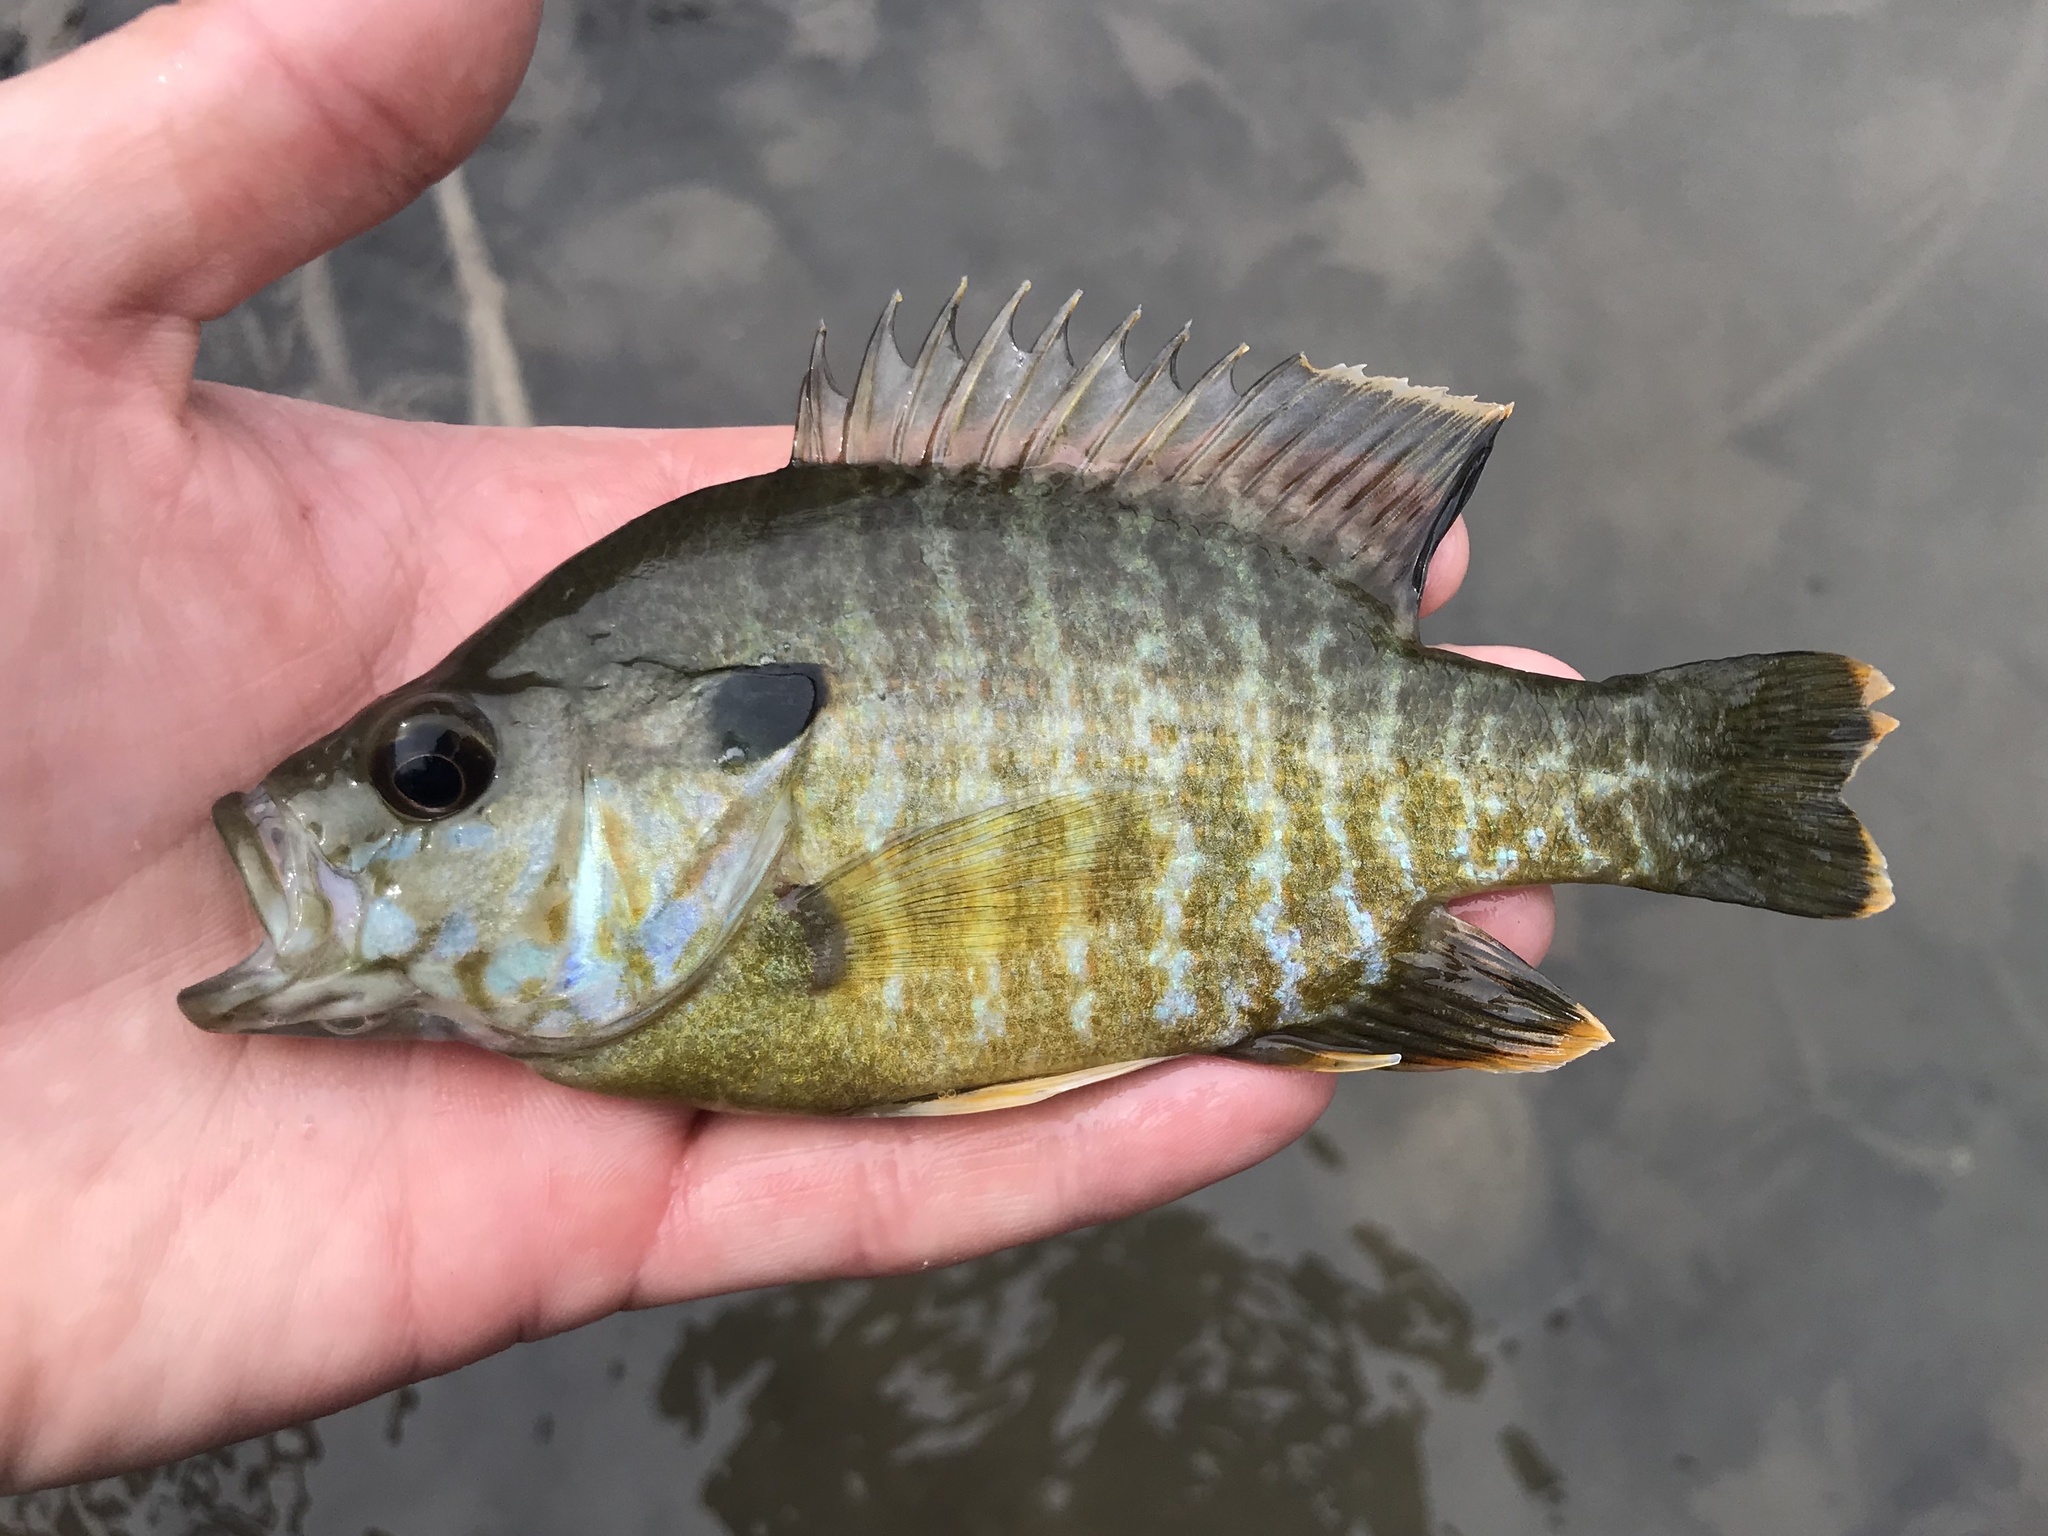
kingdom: Animalia
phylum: Chordata
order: Perciformes
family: Centrarchidae
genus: Lepomis
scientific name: Lepomis
